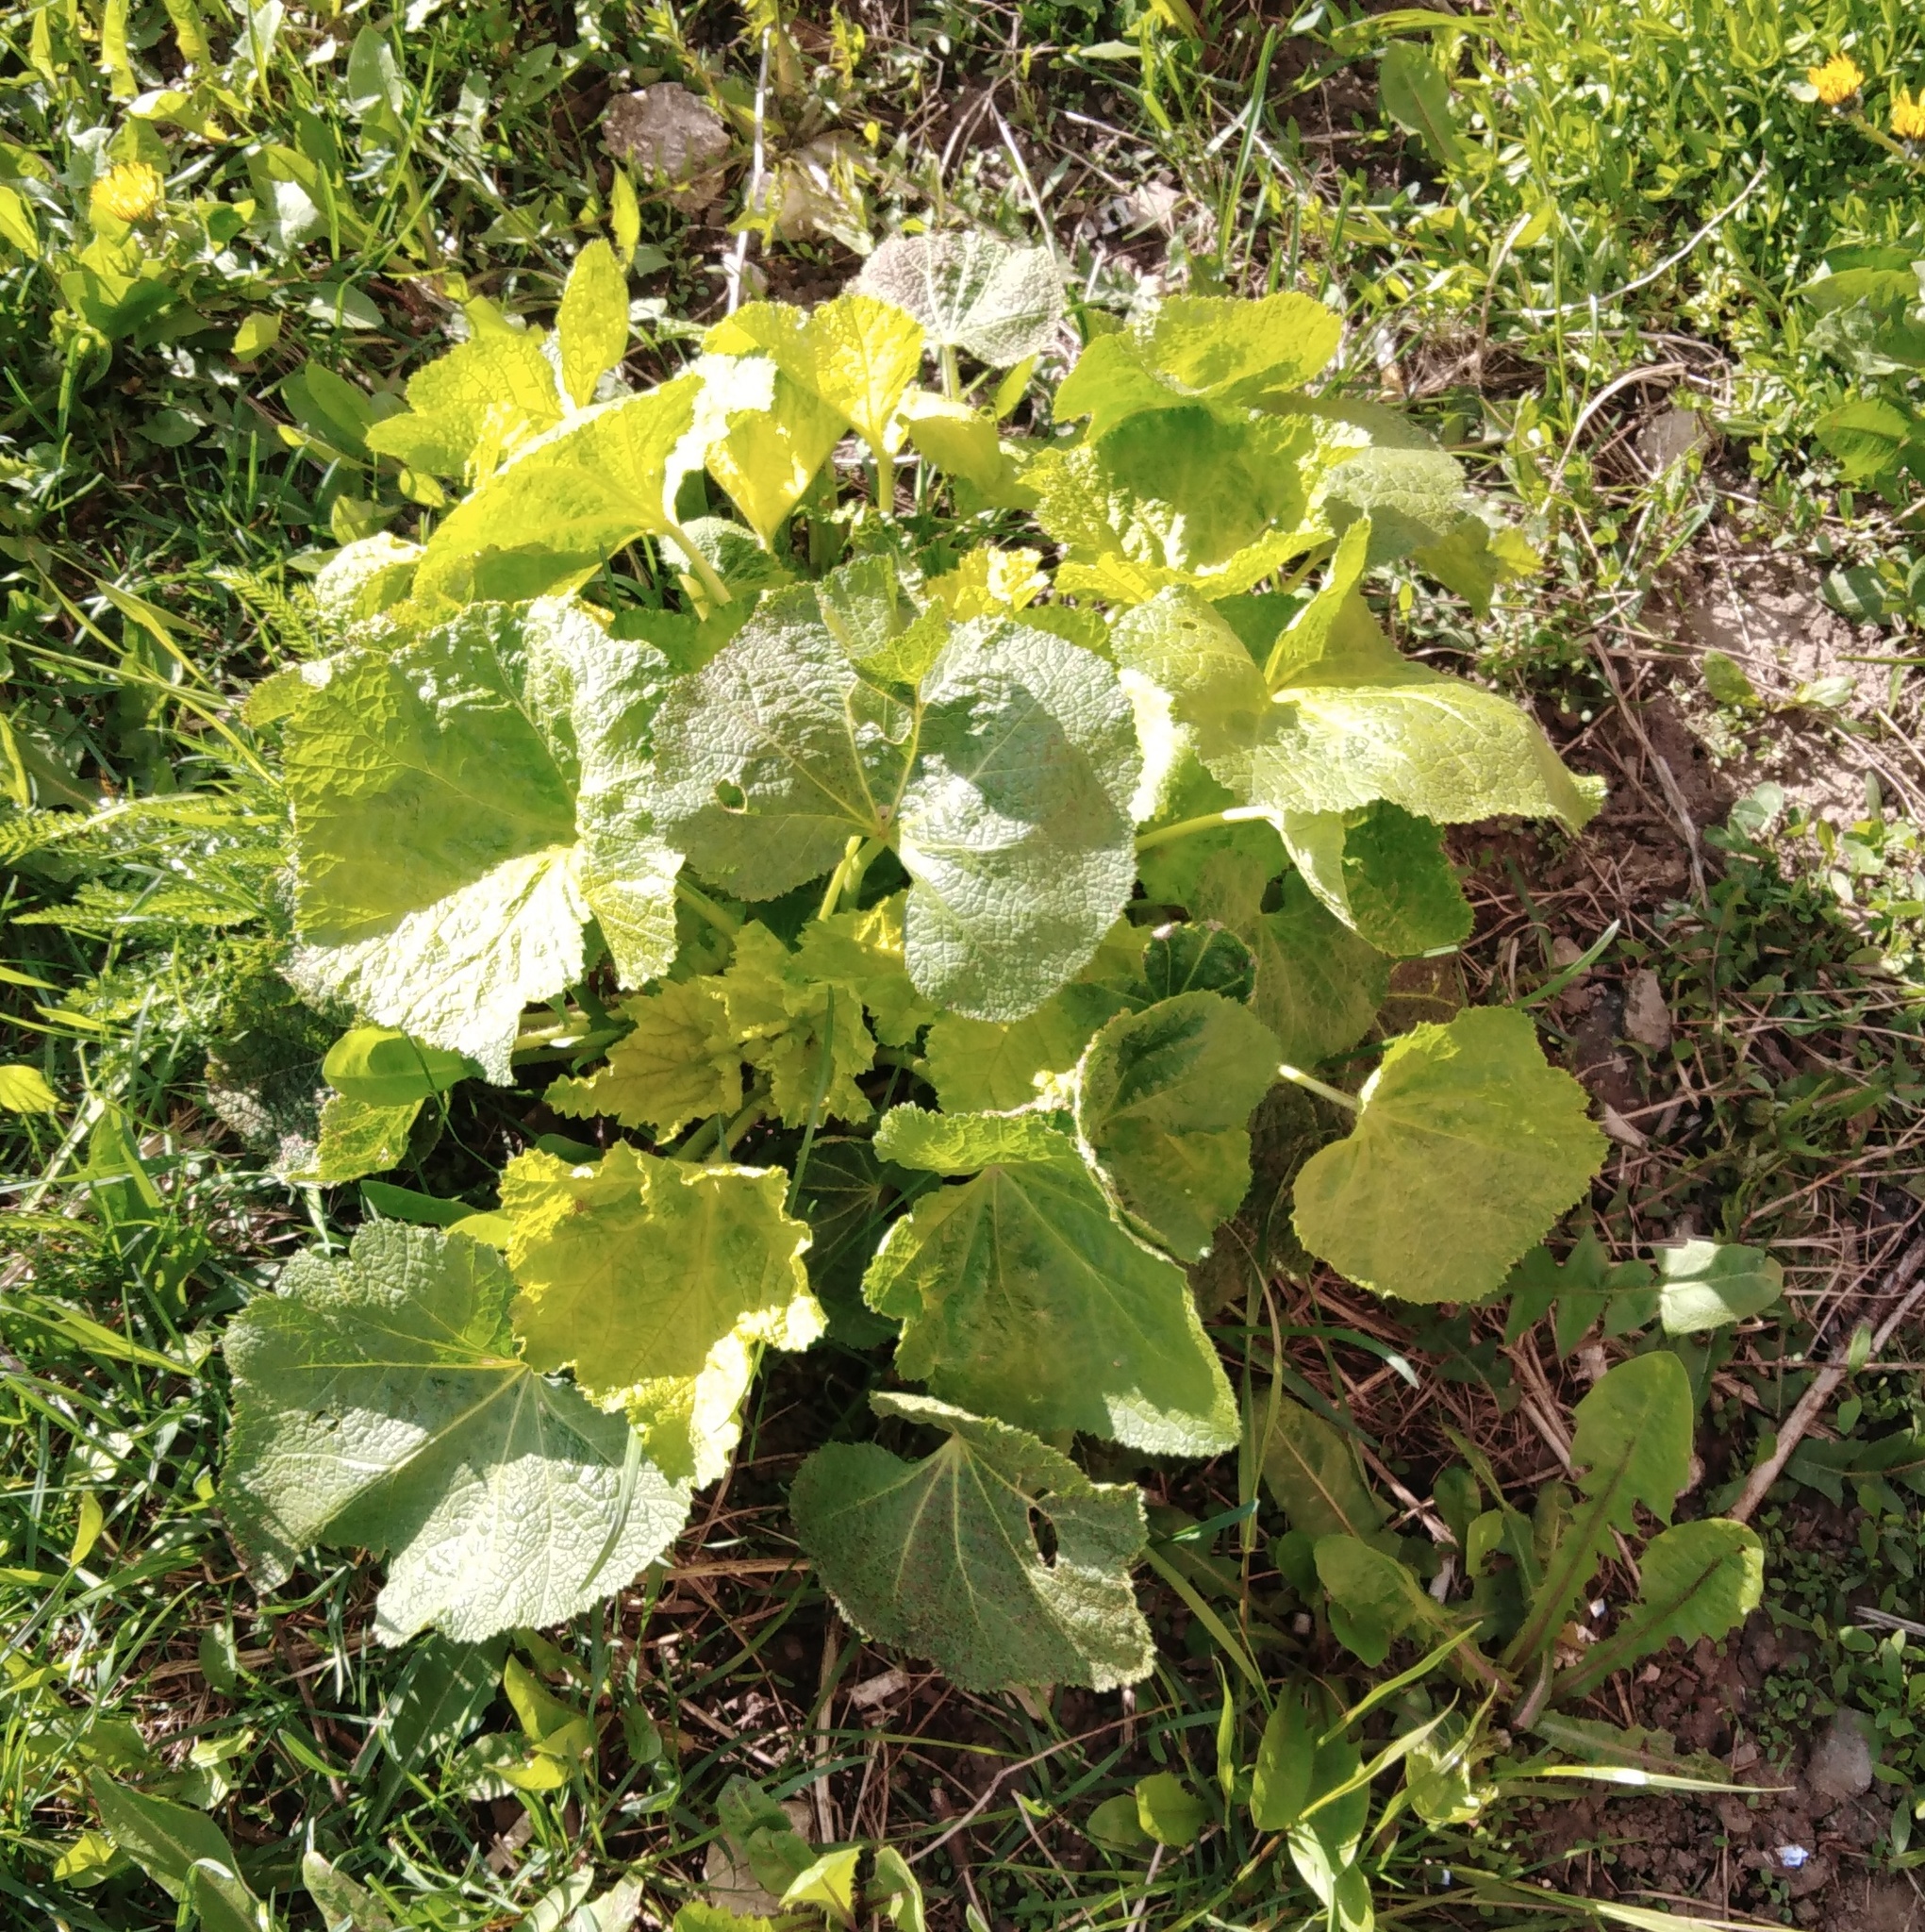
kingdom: Plantae
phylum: Tracheophyta
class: Magnoliopsida
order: Malvales
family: Malvaceae
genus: Alcea
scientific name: Alcea rosea
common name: Hollyhock
